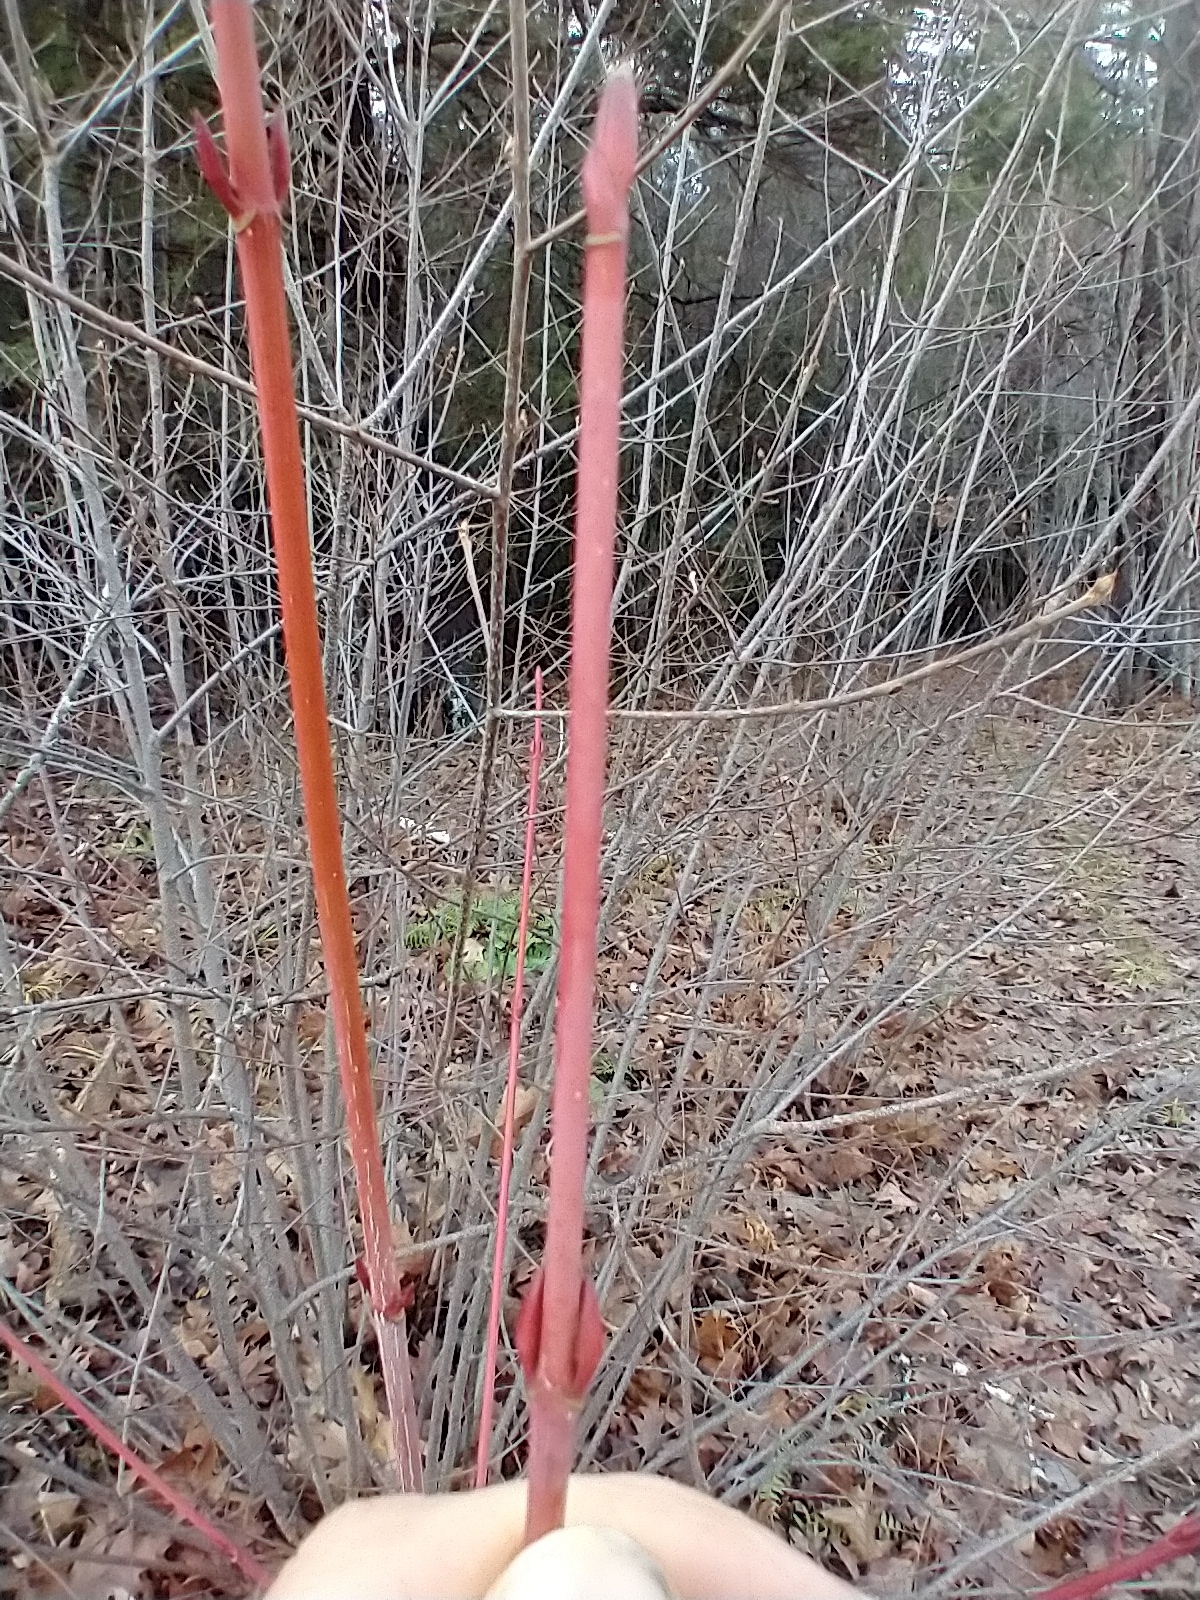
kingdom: Plantae
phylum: Tracheophyta
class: Magnoliopsida
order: Sapindales
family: Sapindaceae
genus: Acer
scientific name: Acer pensylvanicum
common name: Moosewood
